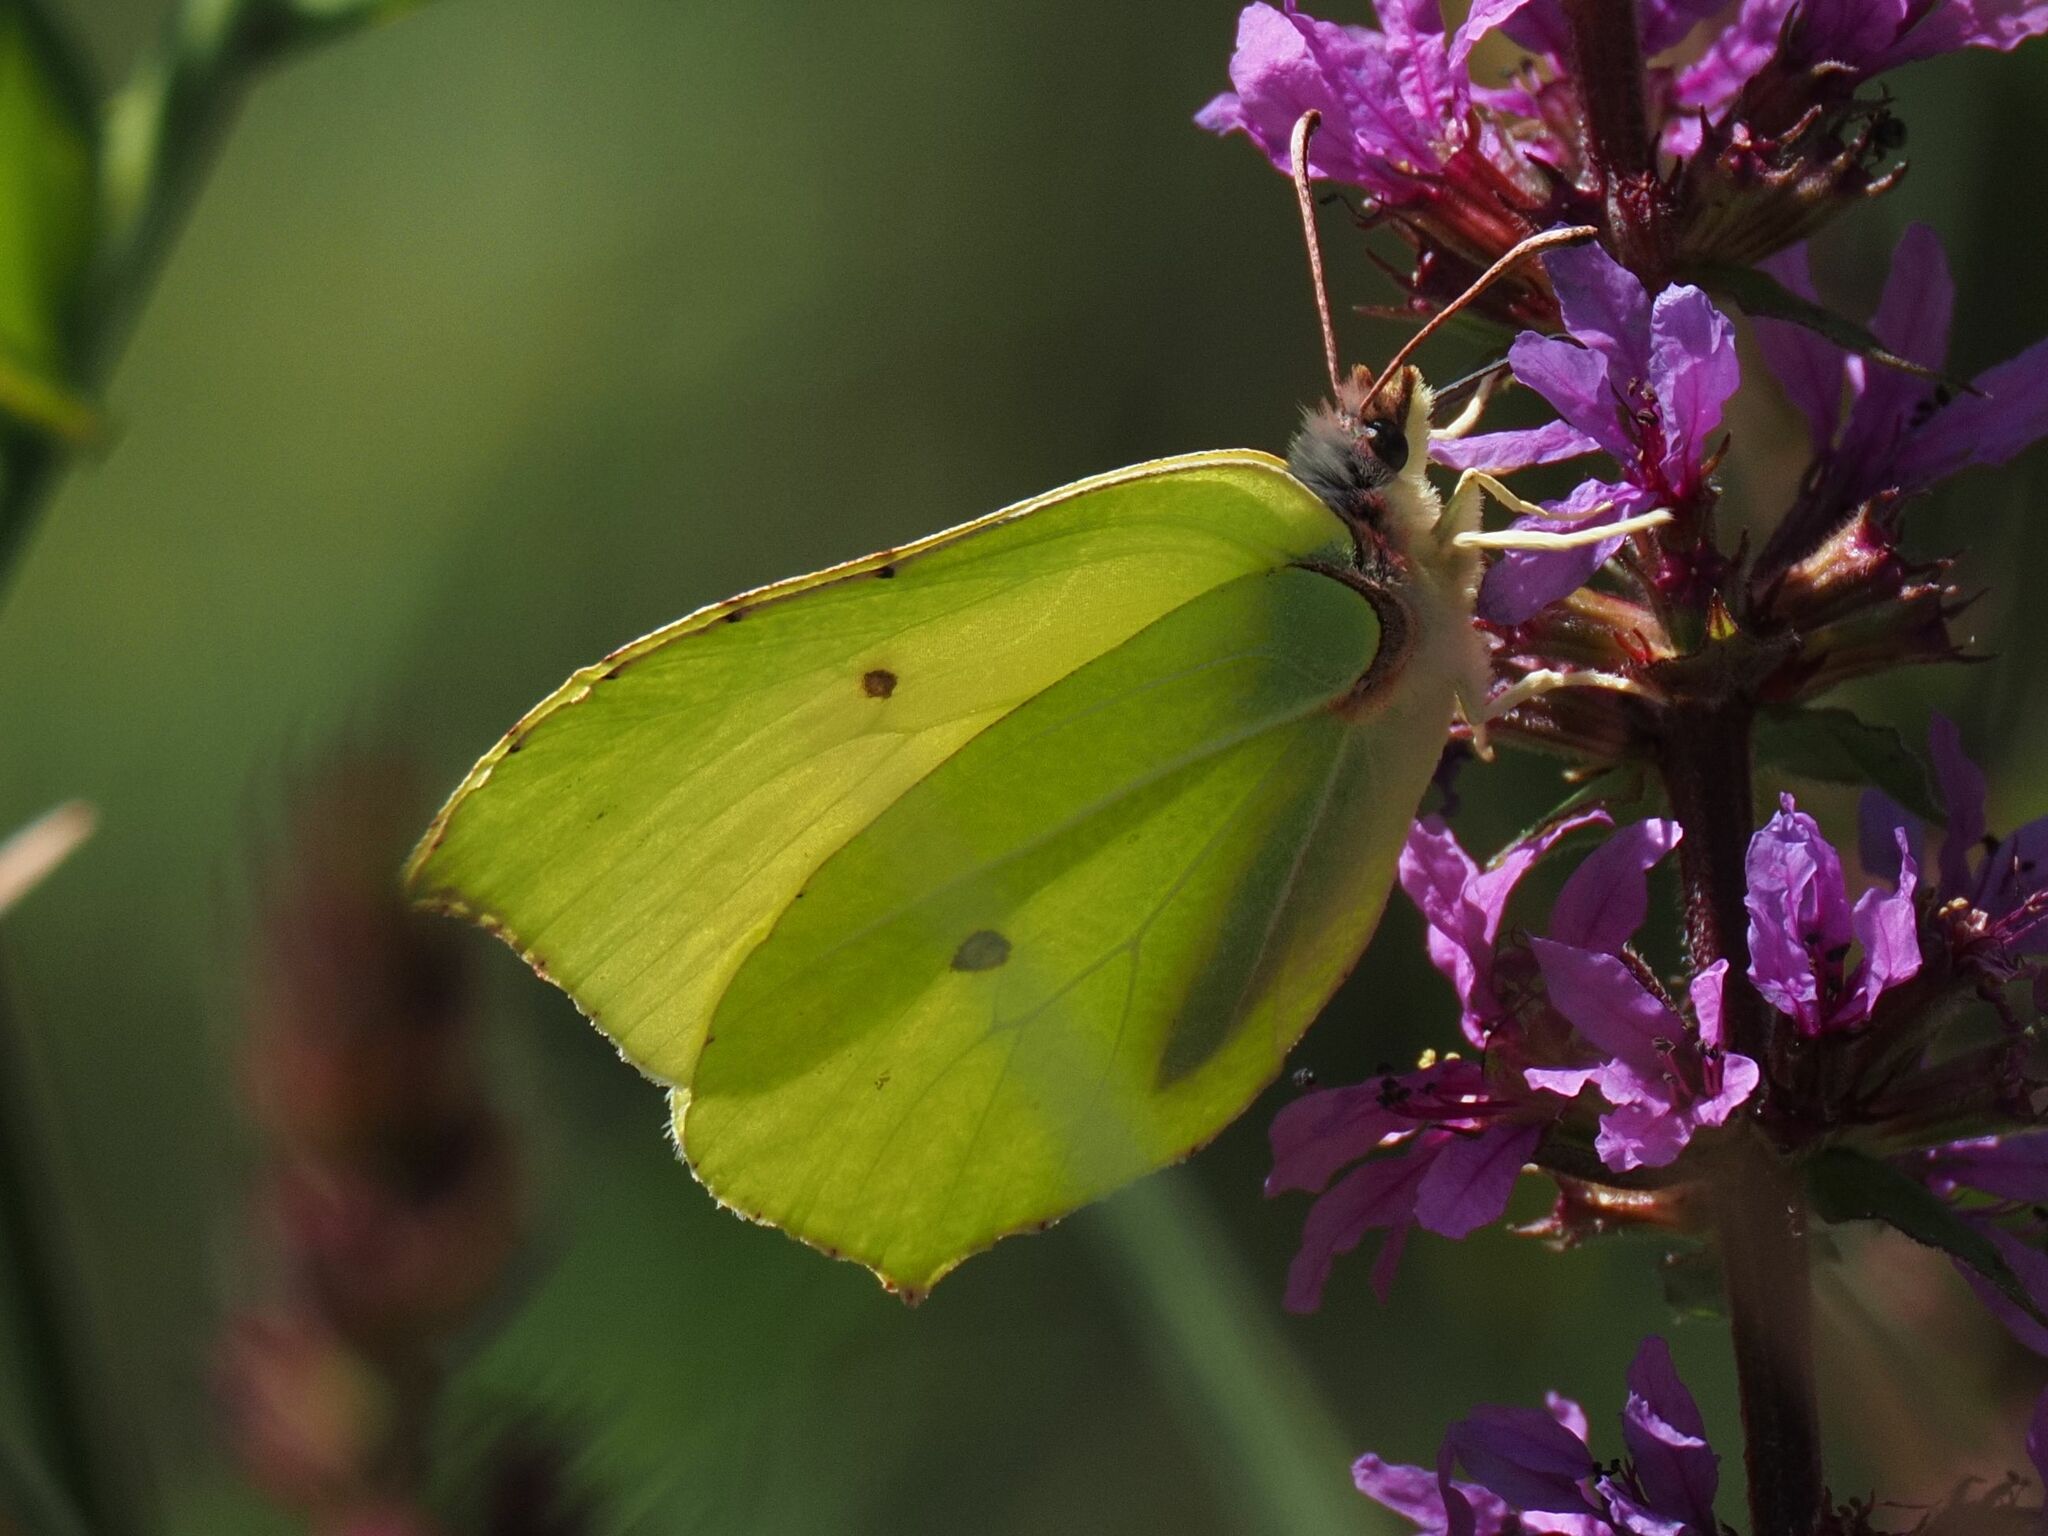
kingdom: Animalia
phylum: Arthropoda
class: Insecta
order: Lepidoptera
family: Pieridae
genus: Gonepteryx
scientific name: Gonepteryx rhamni
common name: Brimstone
